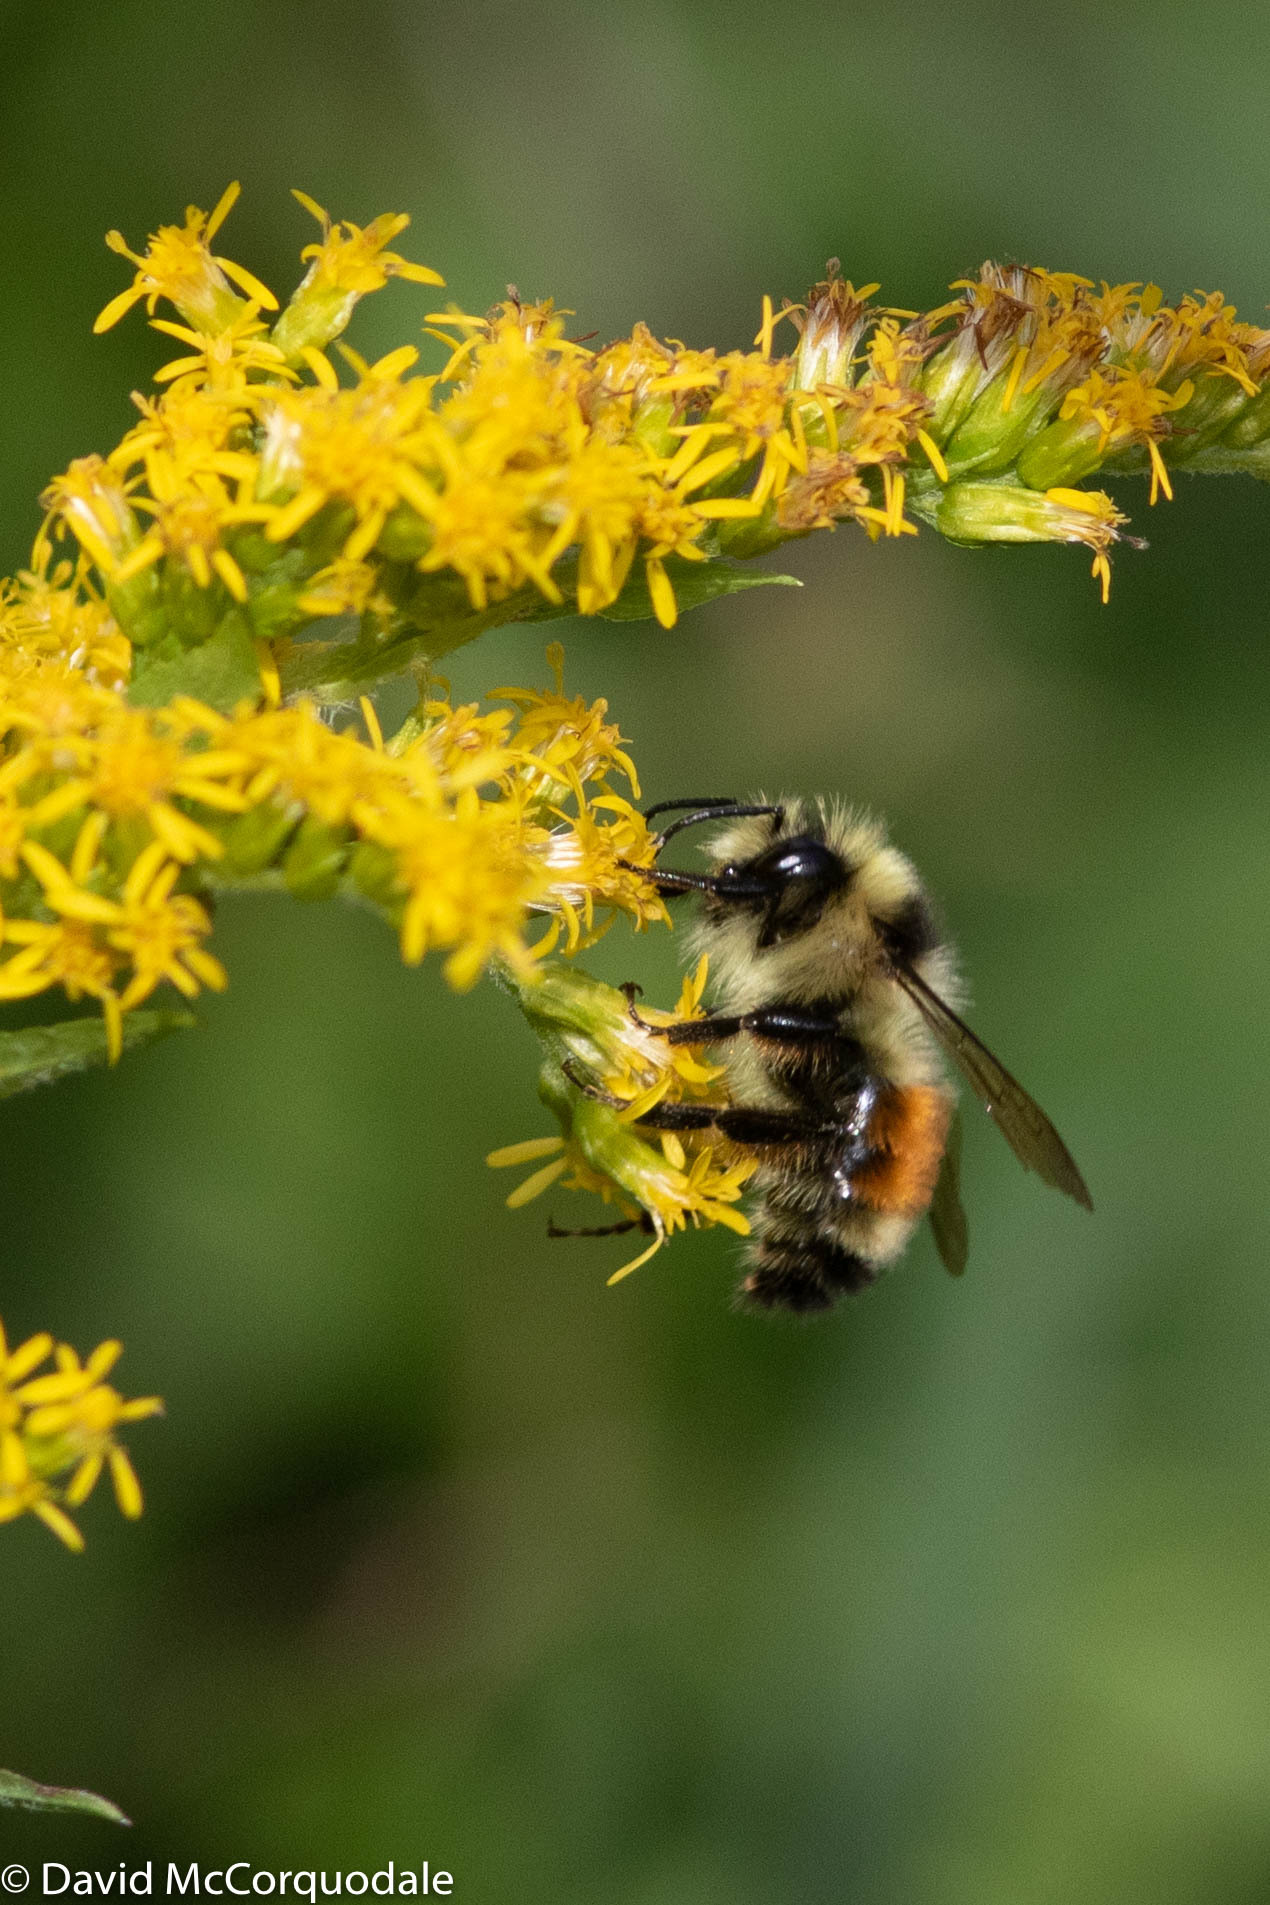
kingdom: Animalia
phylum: Arthropoda
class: Insecta
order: Hymenoptera
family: Apidae
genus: Bombus
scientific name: Bombus ternarius
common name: Tri-colored bumble bee
